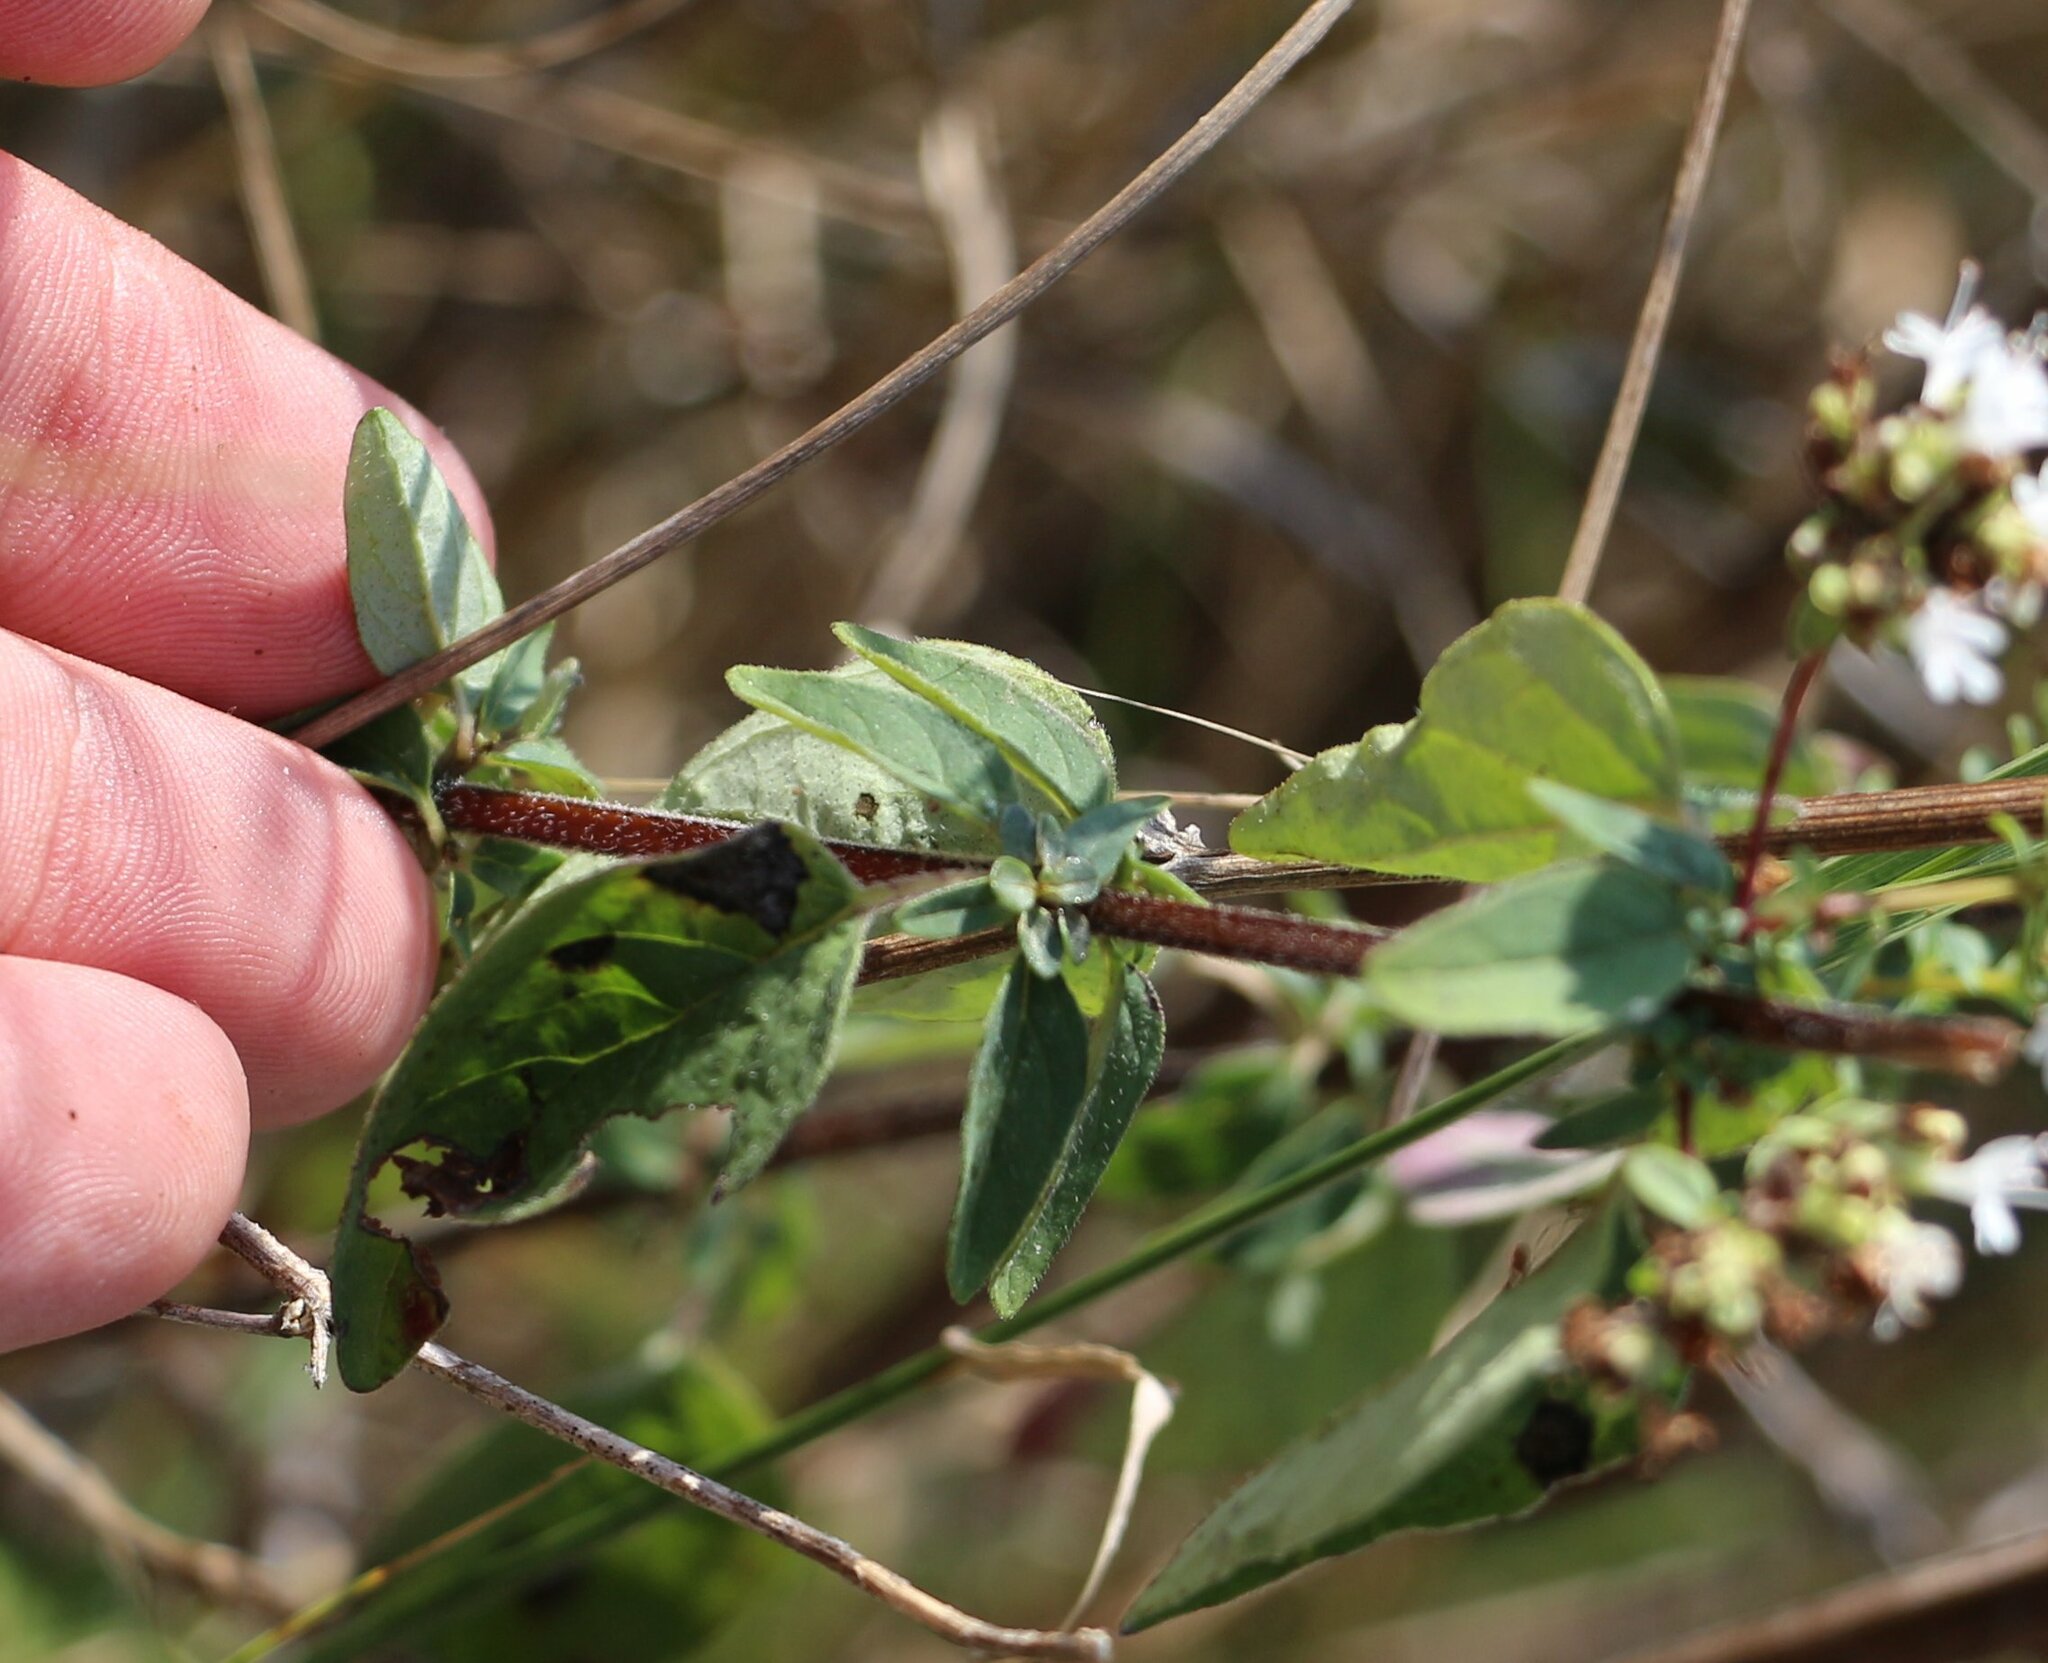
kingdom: Plantae
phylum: Tracheophyta
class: Magnoliopsida
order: Lamiales
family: Lamiaceae
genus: Origanum
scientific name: Origanum vulgare
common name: Wild marjoram
